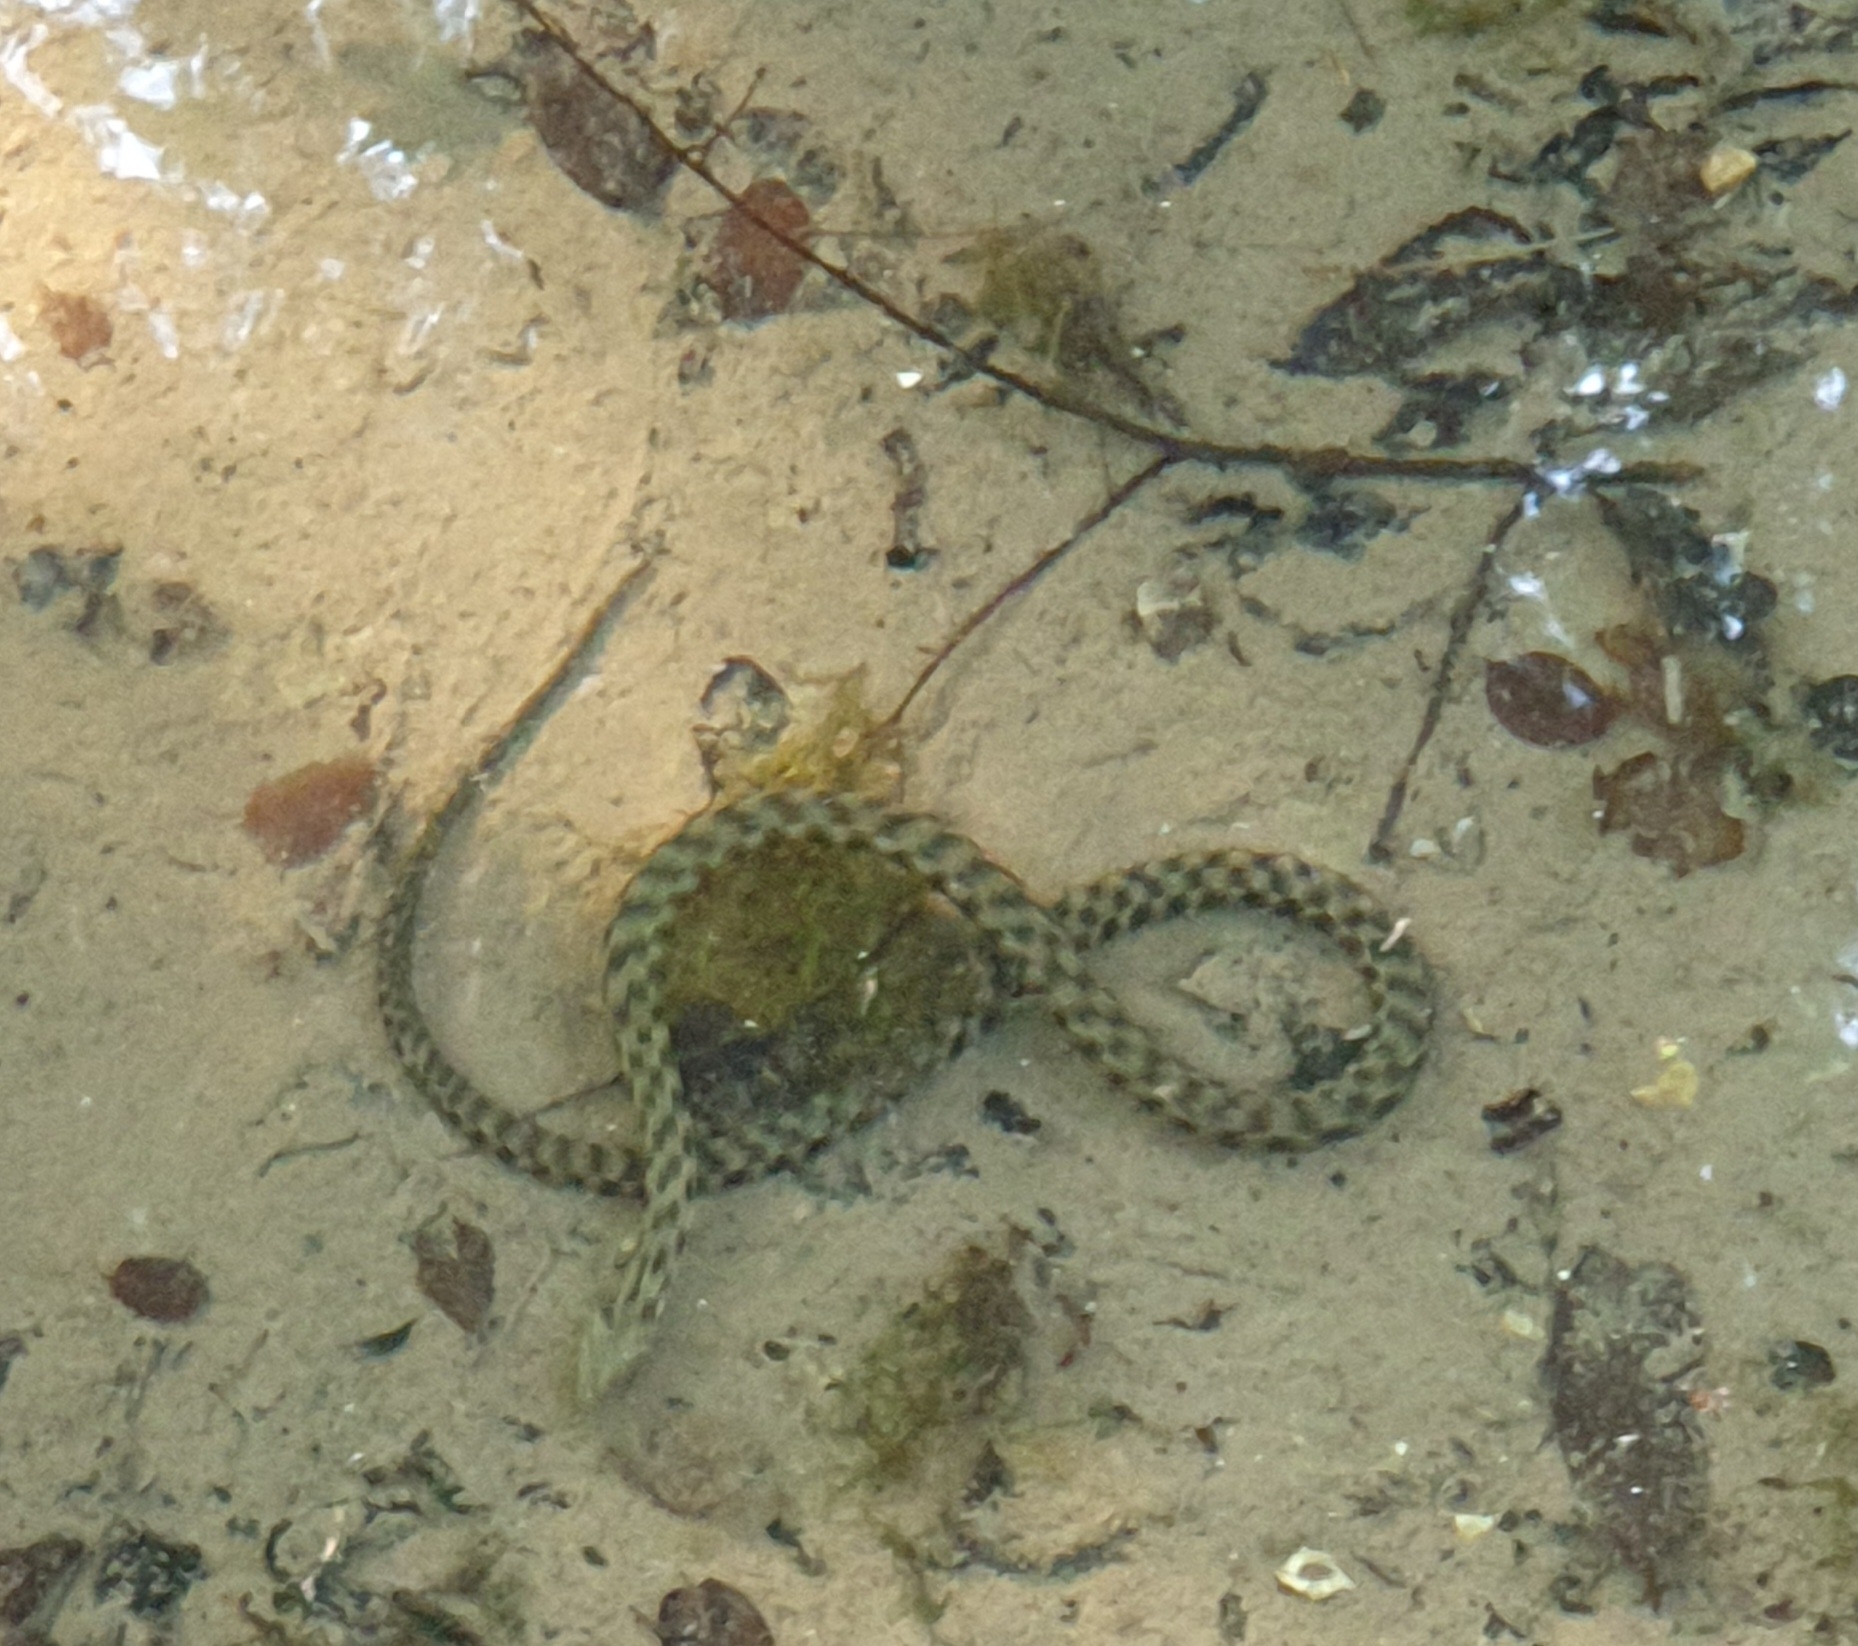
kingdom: Animalia
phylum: Chordata
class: Squamata
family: Colubridae
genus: Natrix
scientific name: Natrix tessellata
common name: Dice snake
